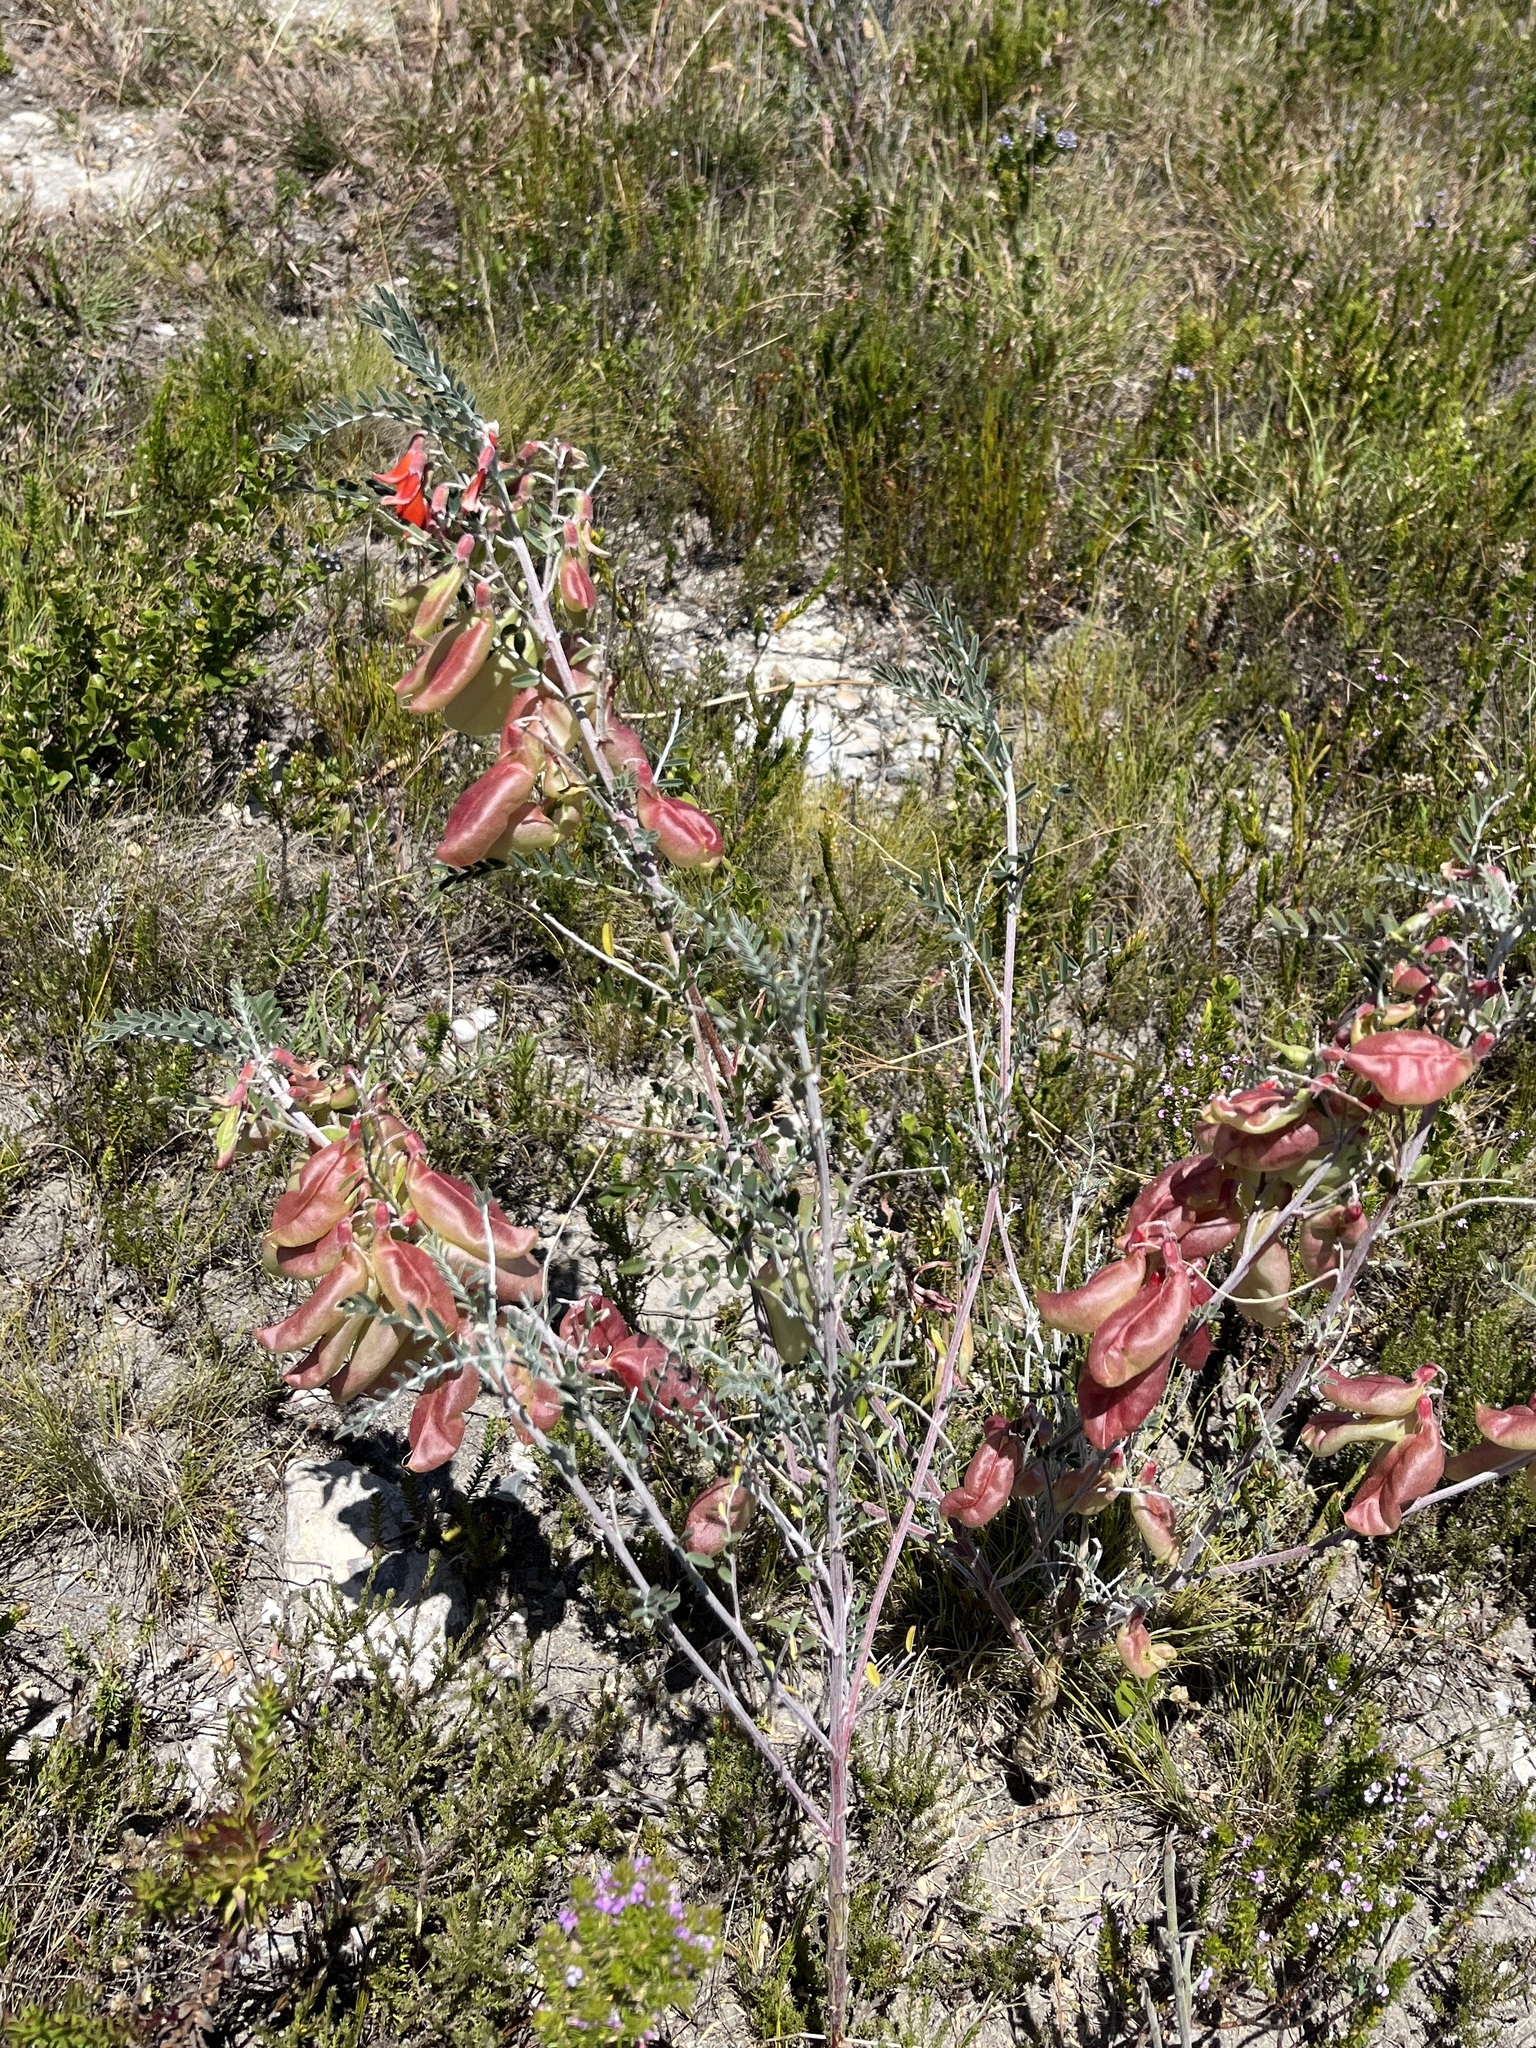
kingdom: Plantae
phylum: Tracheophyta
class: Magnoliopsida
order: Fabales
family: Fabaceae
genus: Lessertia
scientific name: Lessertia frutescens
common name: Balloon-pea
